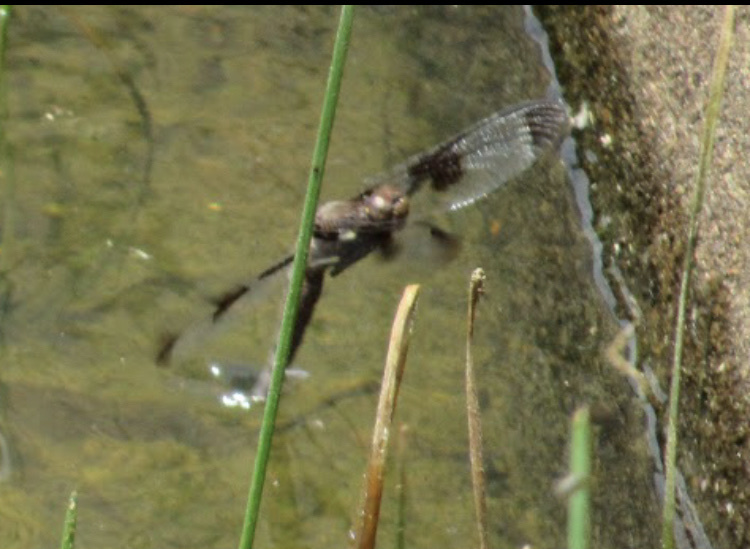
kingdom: Animalia
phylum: Arthropoda
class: Insecta
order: Odonata
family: Libellulidae
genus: Plathemis
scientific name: Plathemis lydia
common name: Common whitetail
